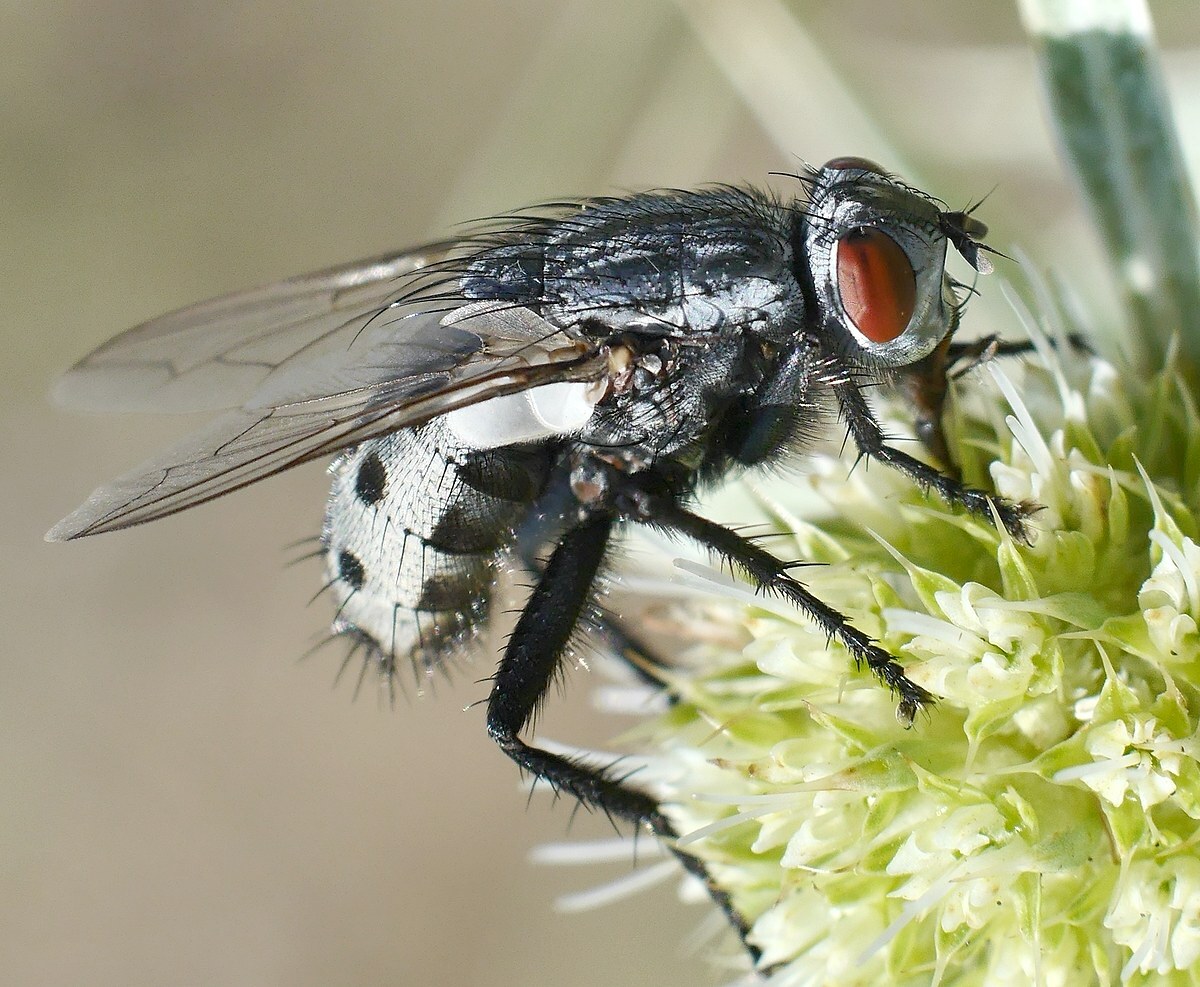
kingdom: Animalia
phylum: Arthropoda
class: Insecta
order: Diptera
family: Sarcophagidae
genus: Wohlfahrtia
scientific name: Wohlfahrtia magnifica
